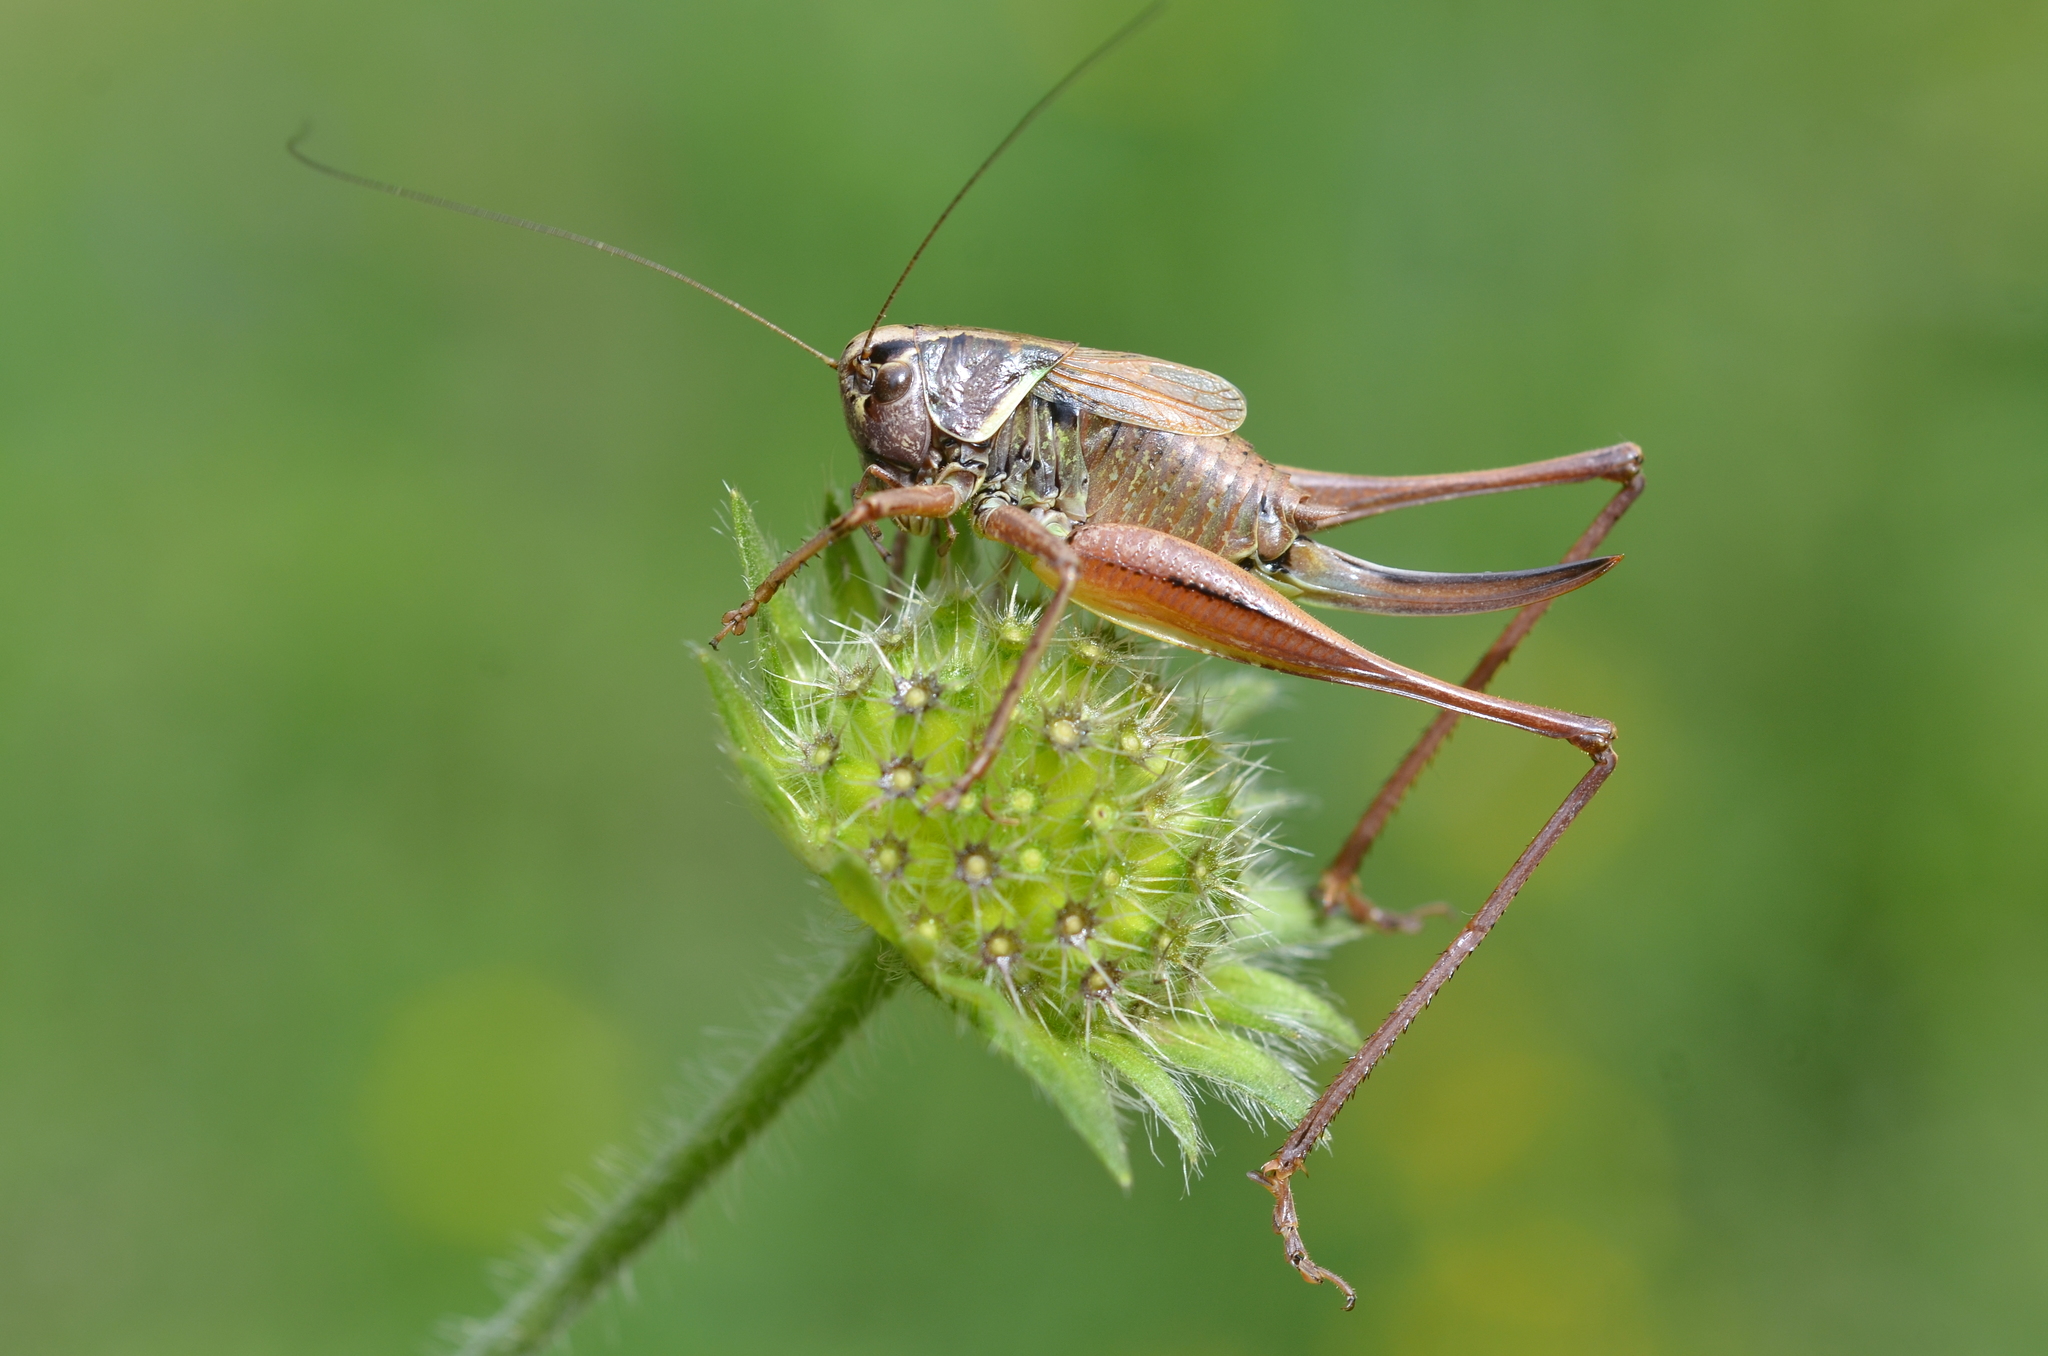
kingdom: Animalia
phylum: Arthropoda
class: Insecta
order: Orthoptera
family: Tettigoniidae
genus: Metrioptera
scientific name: Metrioptera saussuriana
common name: Purple meadow bush-cricket
